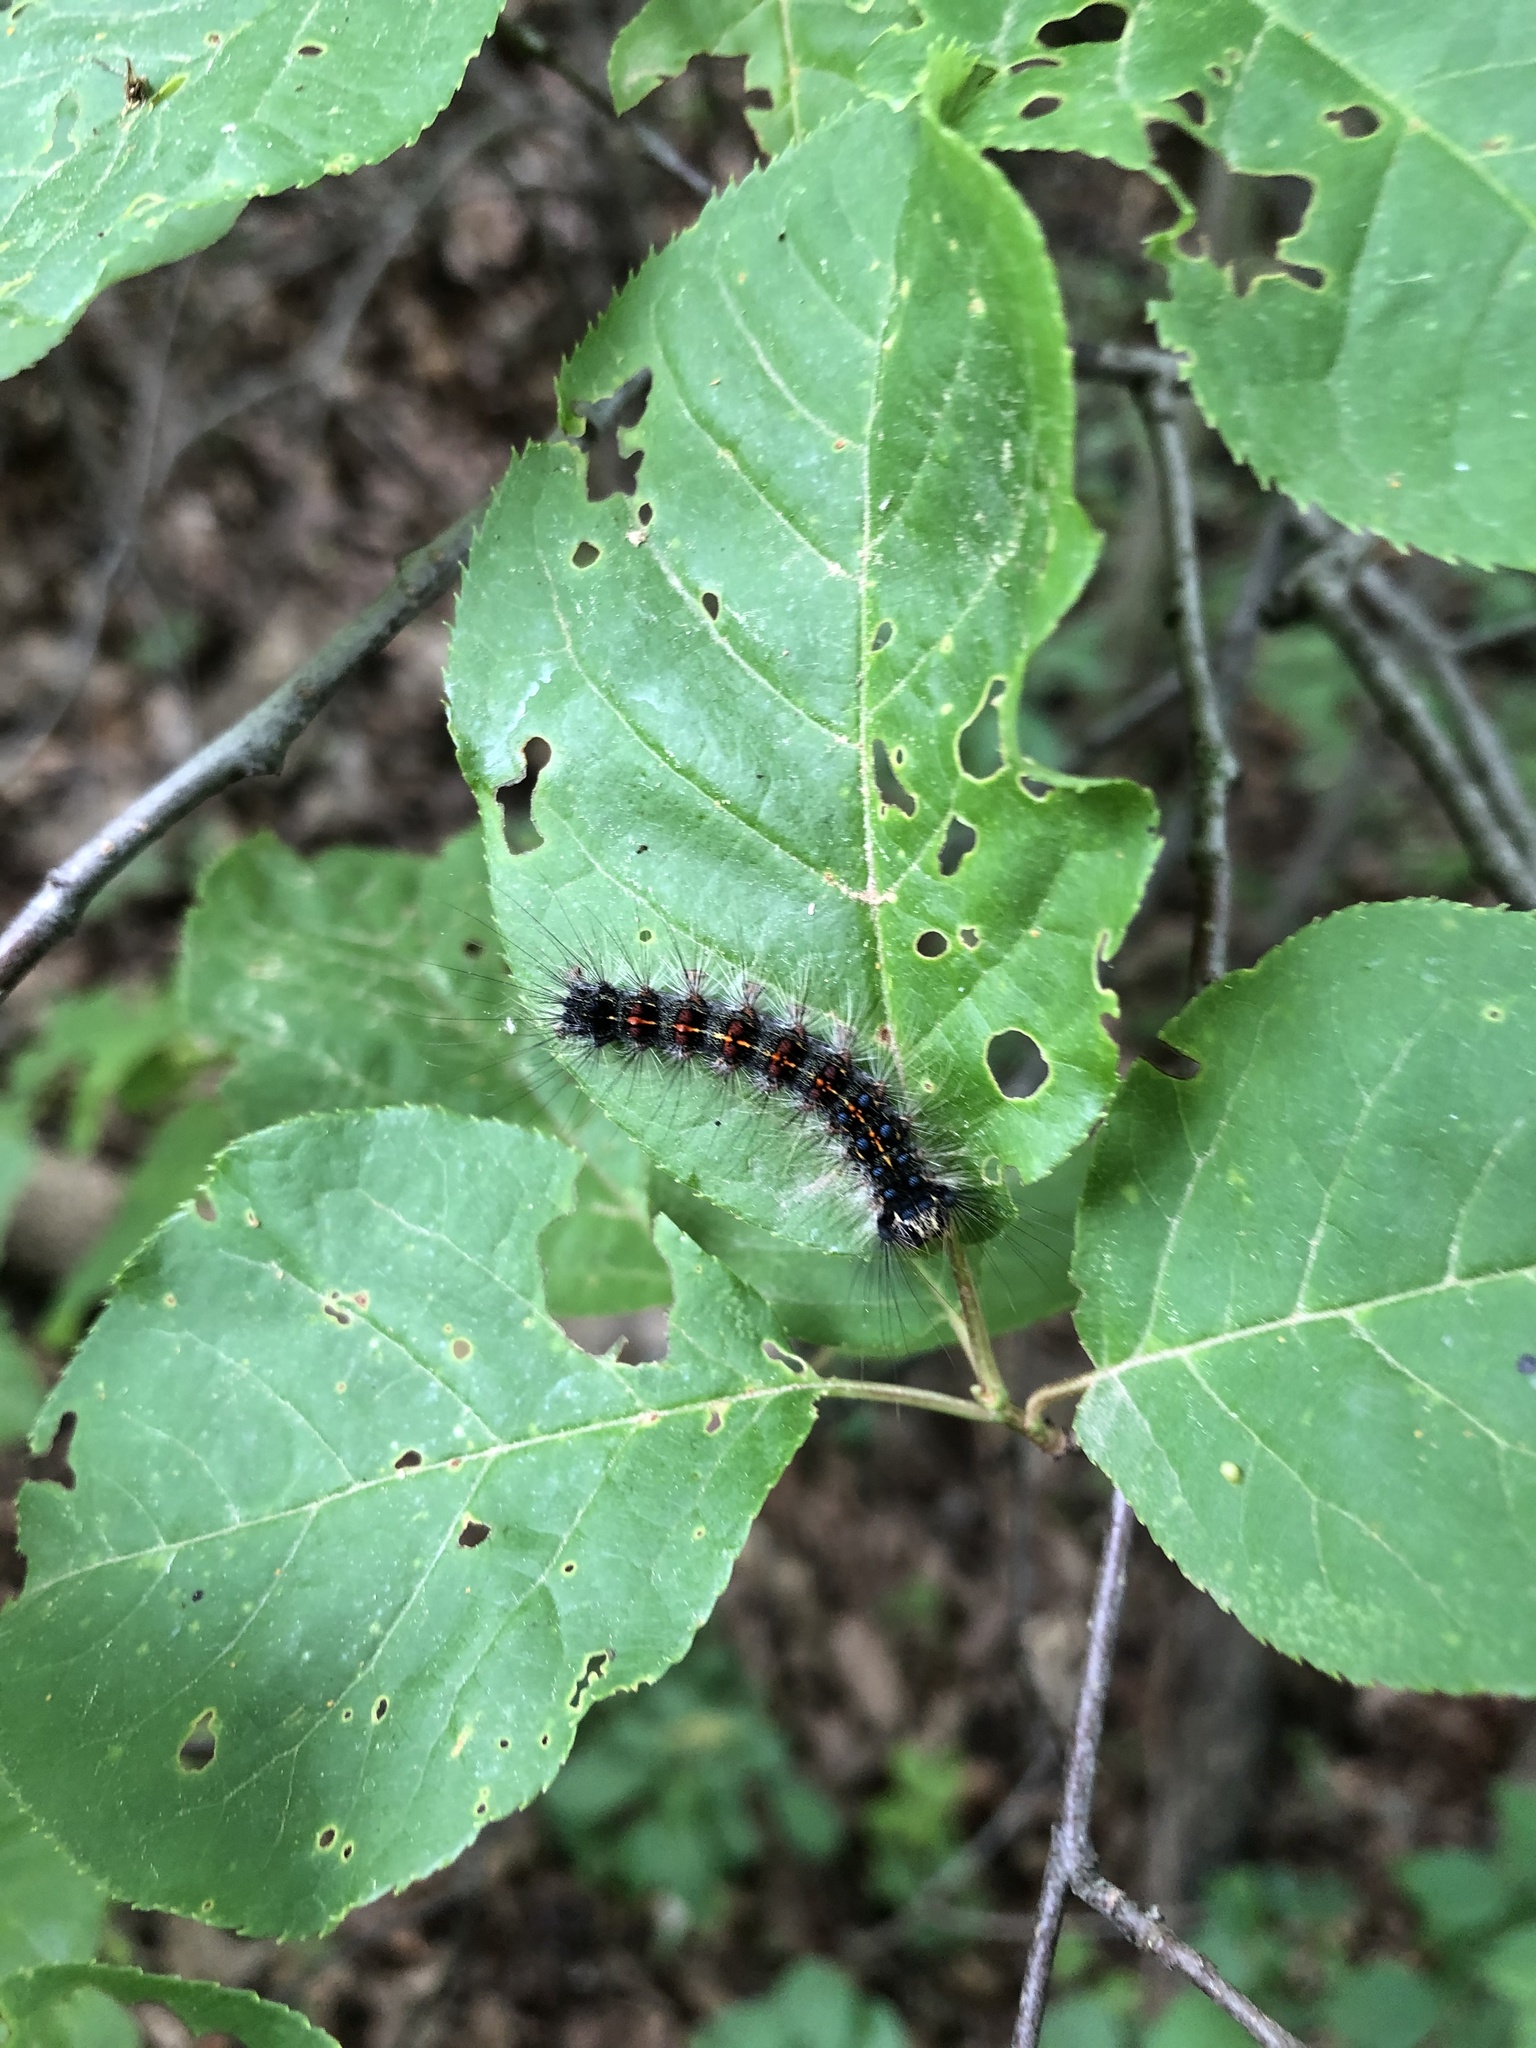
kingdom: Animalia
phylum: Arthropoda
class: Insecta
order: Lepidoptera
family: Erebidae
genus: Lymantria
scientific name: Lymantria dispar
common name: Gypsy moth
